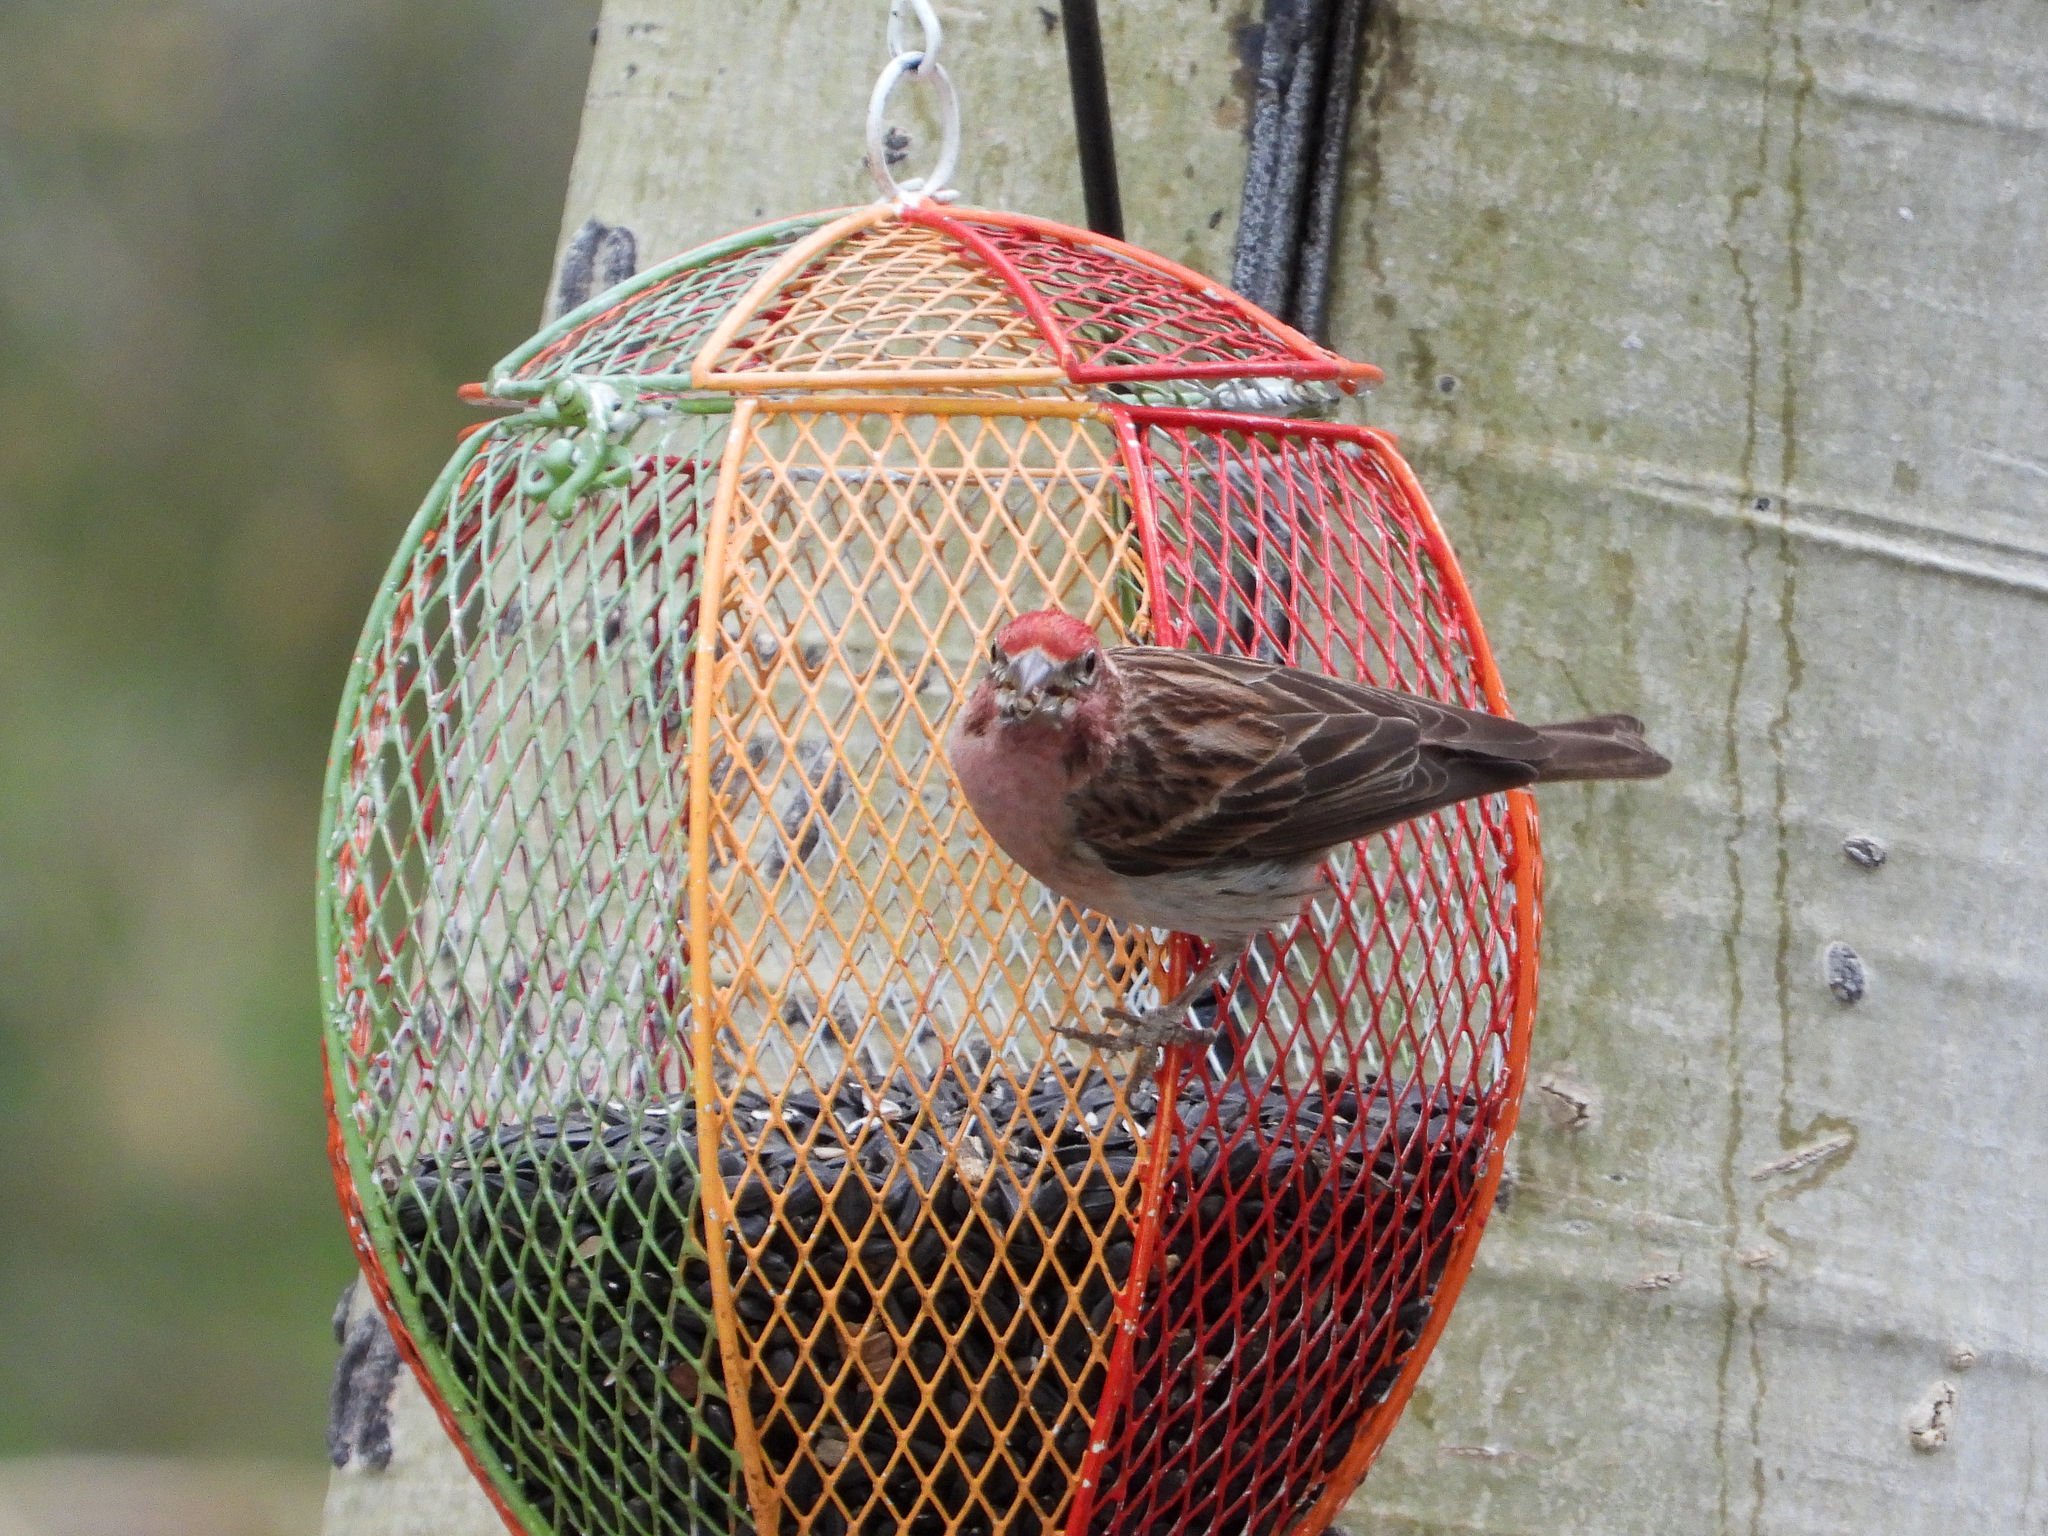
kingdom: Animalia
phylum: Chordata
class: Aves
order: Passeriformes
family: Fringillidae
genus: Haemorhous
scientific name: Haemorhous cassinii
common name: Cassin's finch
